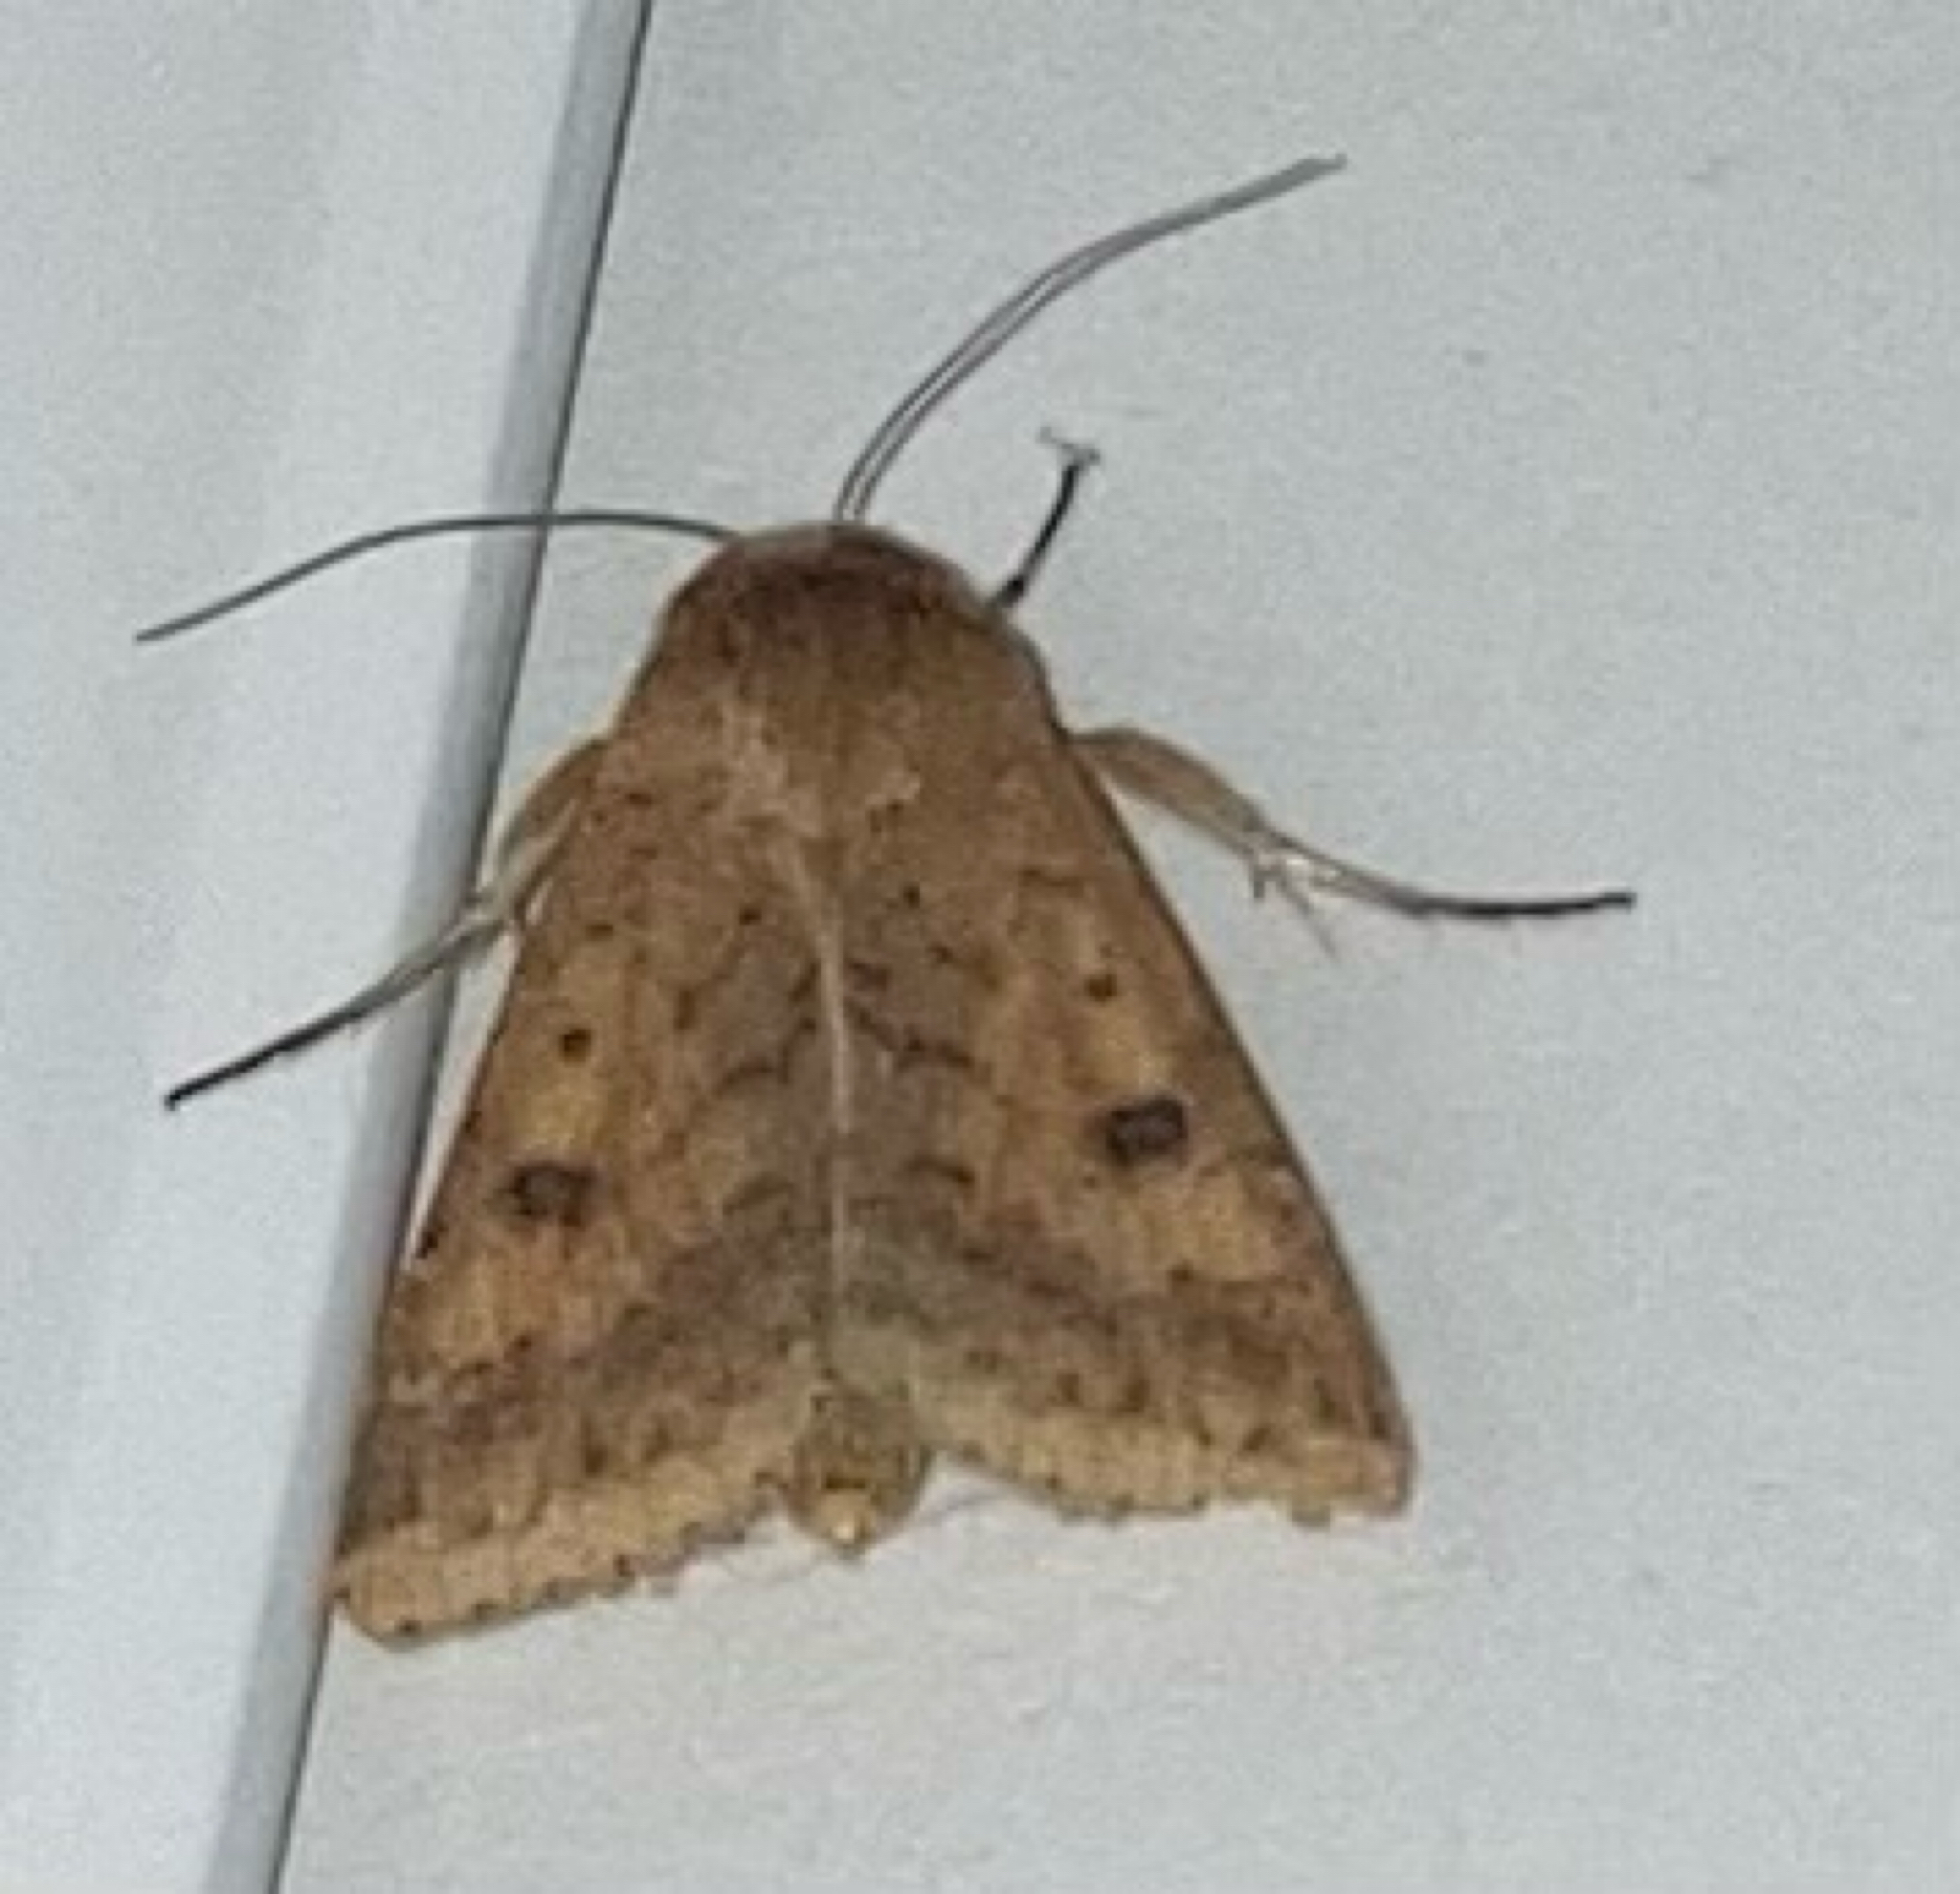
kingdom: Animalia
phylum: Arthropoda
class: Insecta
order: Lepidoptera
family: Noctuidae
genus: Helicoverpa
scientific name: Helicoverpa armigera
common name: Cotton bollworm
